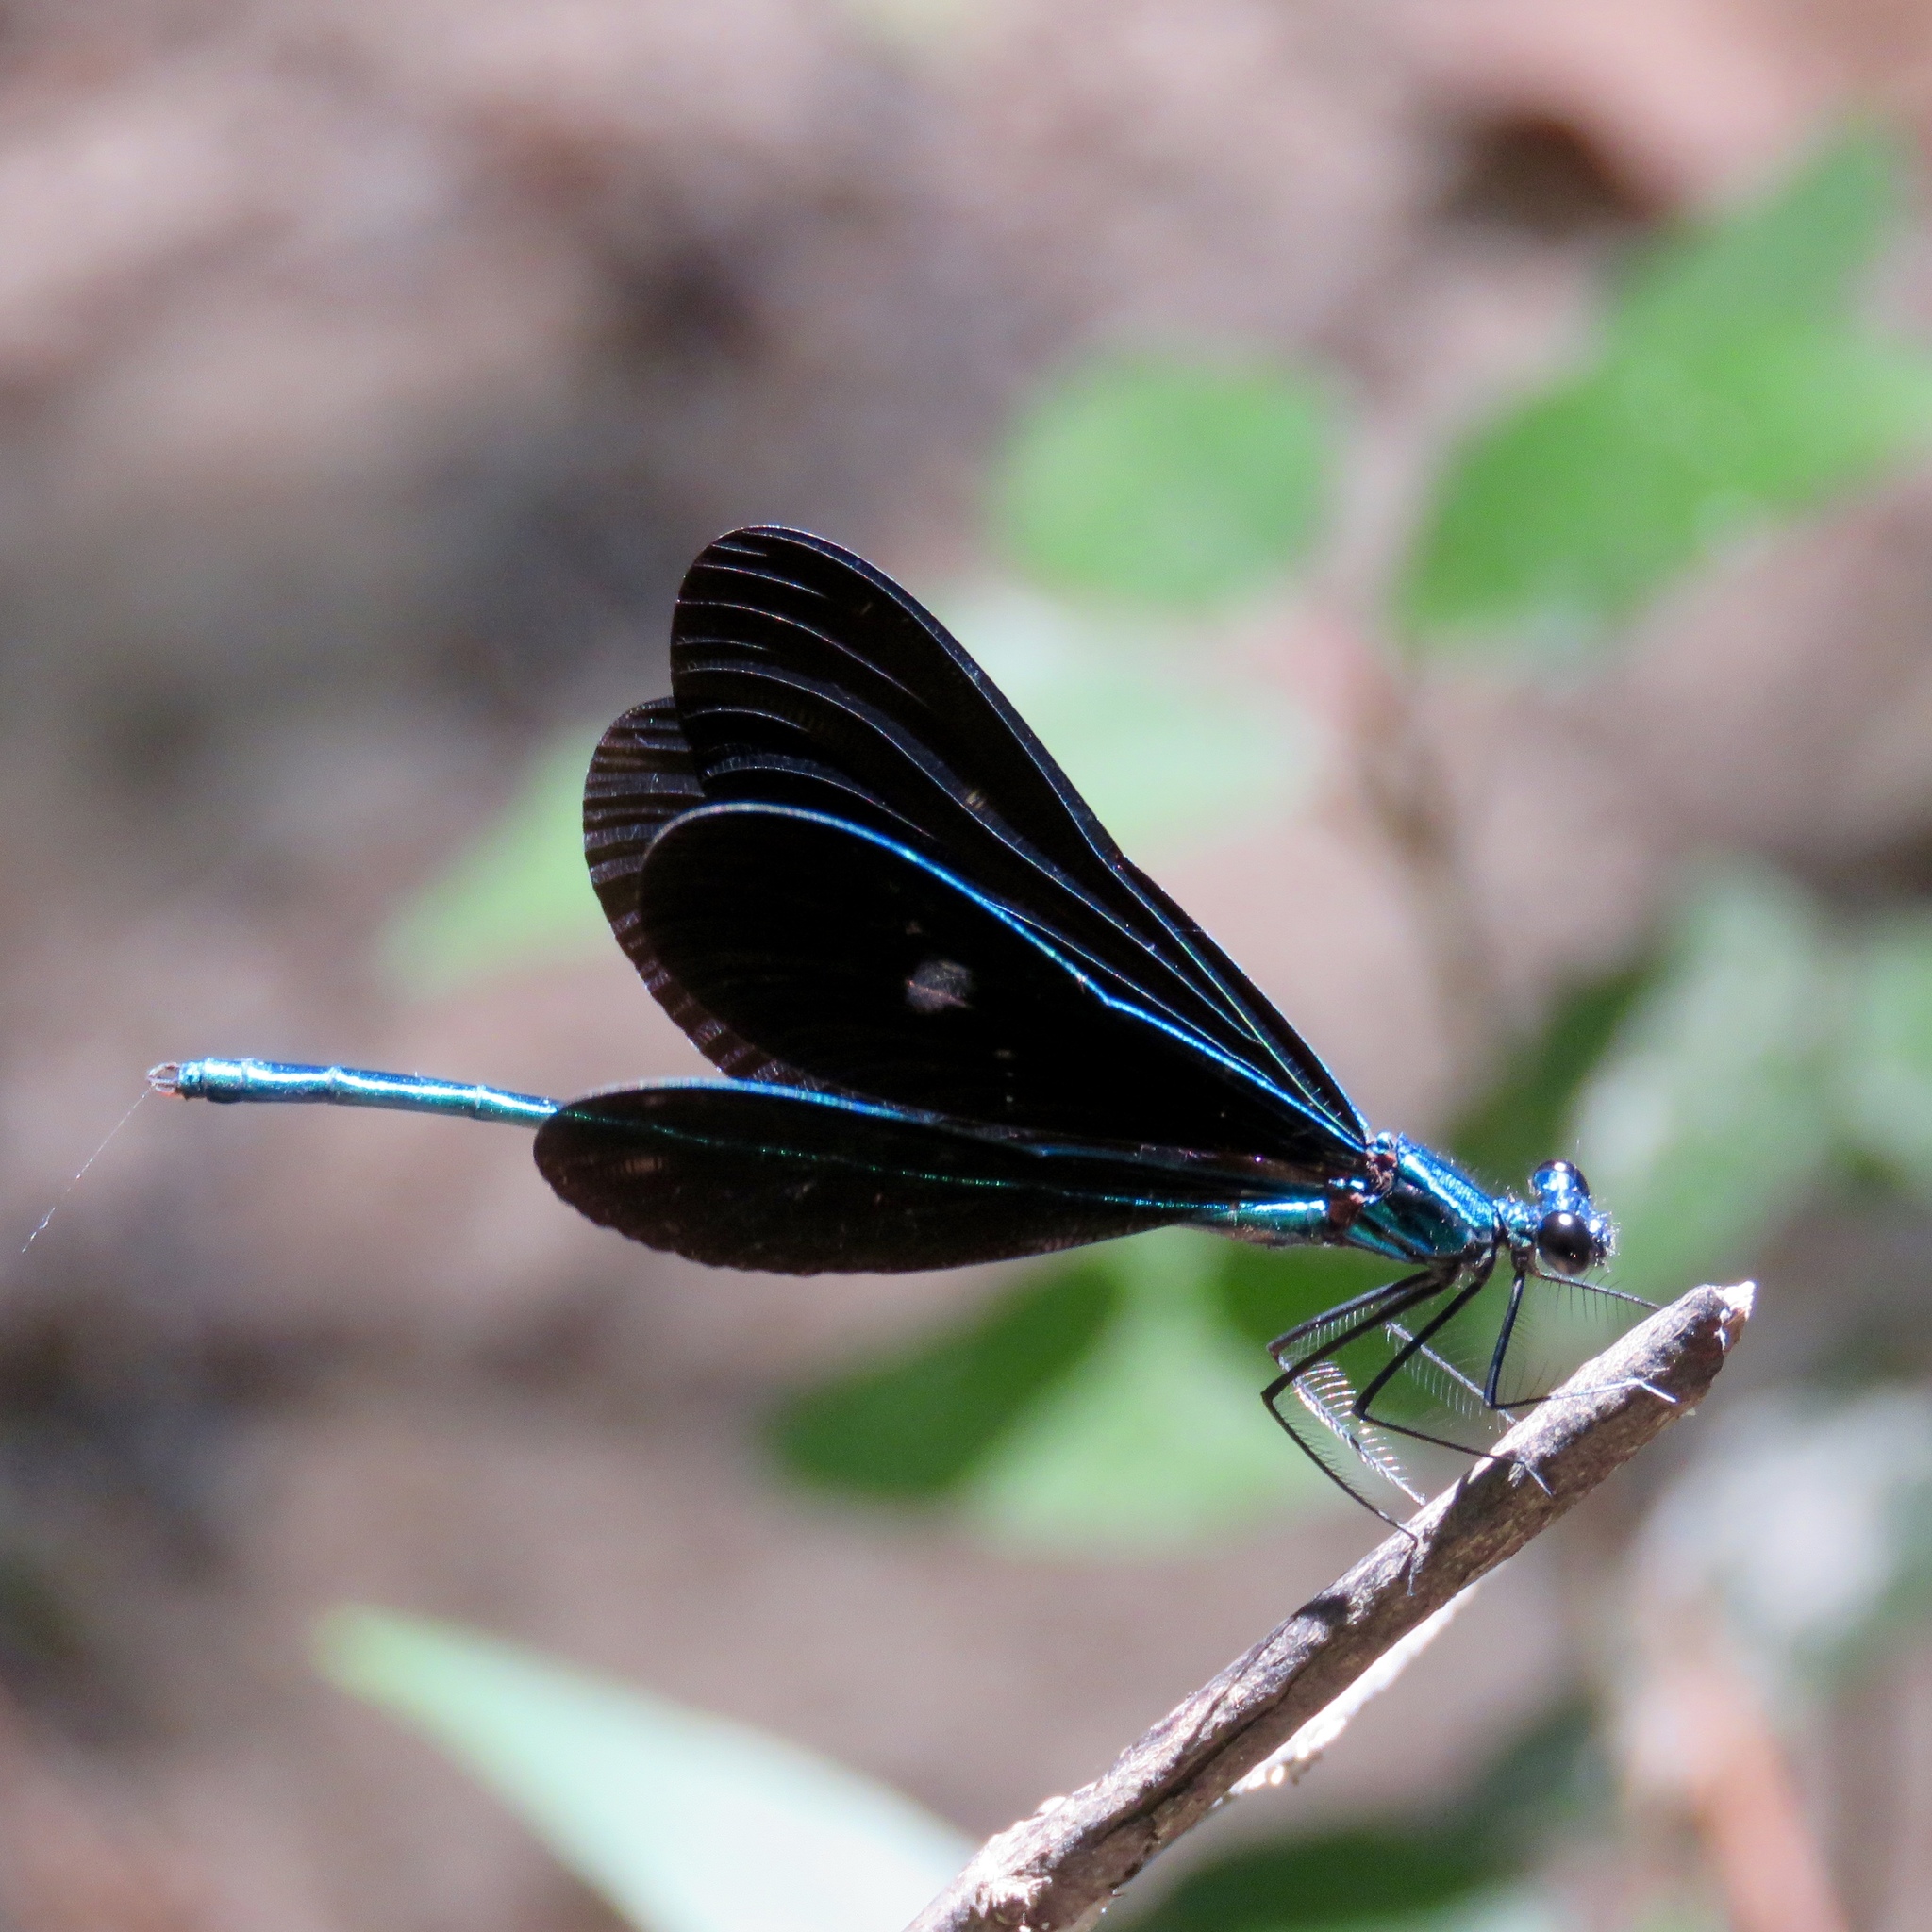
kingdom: Animalia
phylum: Arthropoda
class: Insecta
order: Odonata
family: Calopterygidae
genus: Calopteryx
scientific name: Calopteryx maculata
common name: Ebony jewelwing
